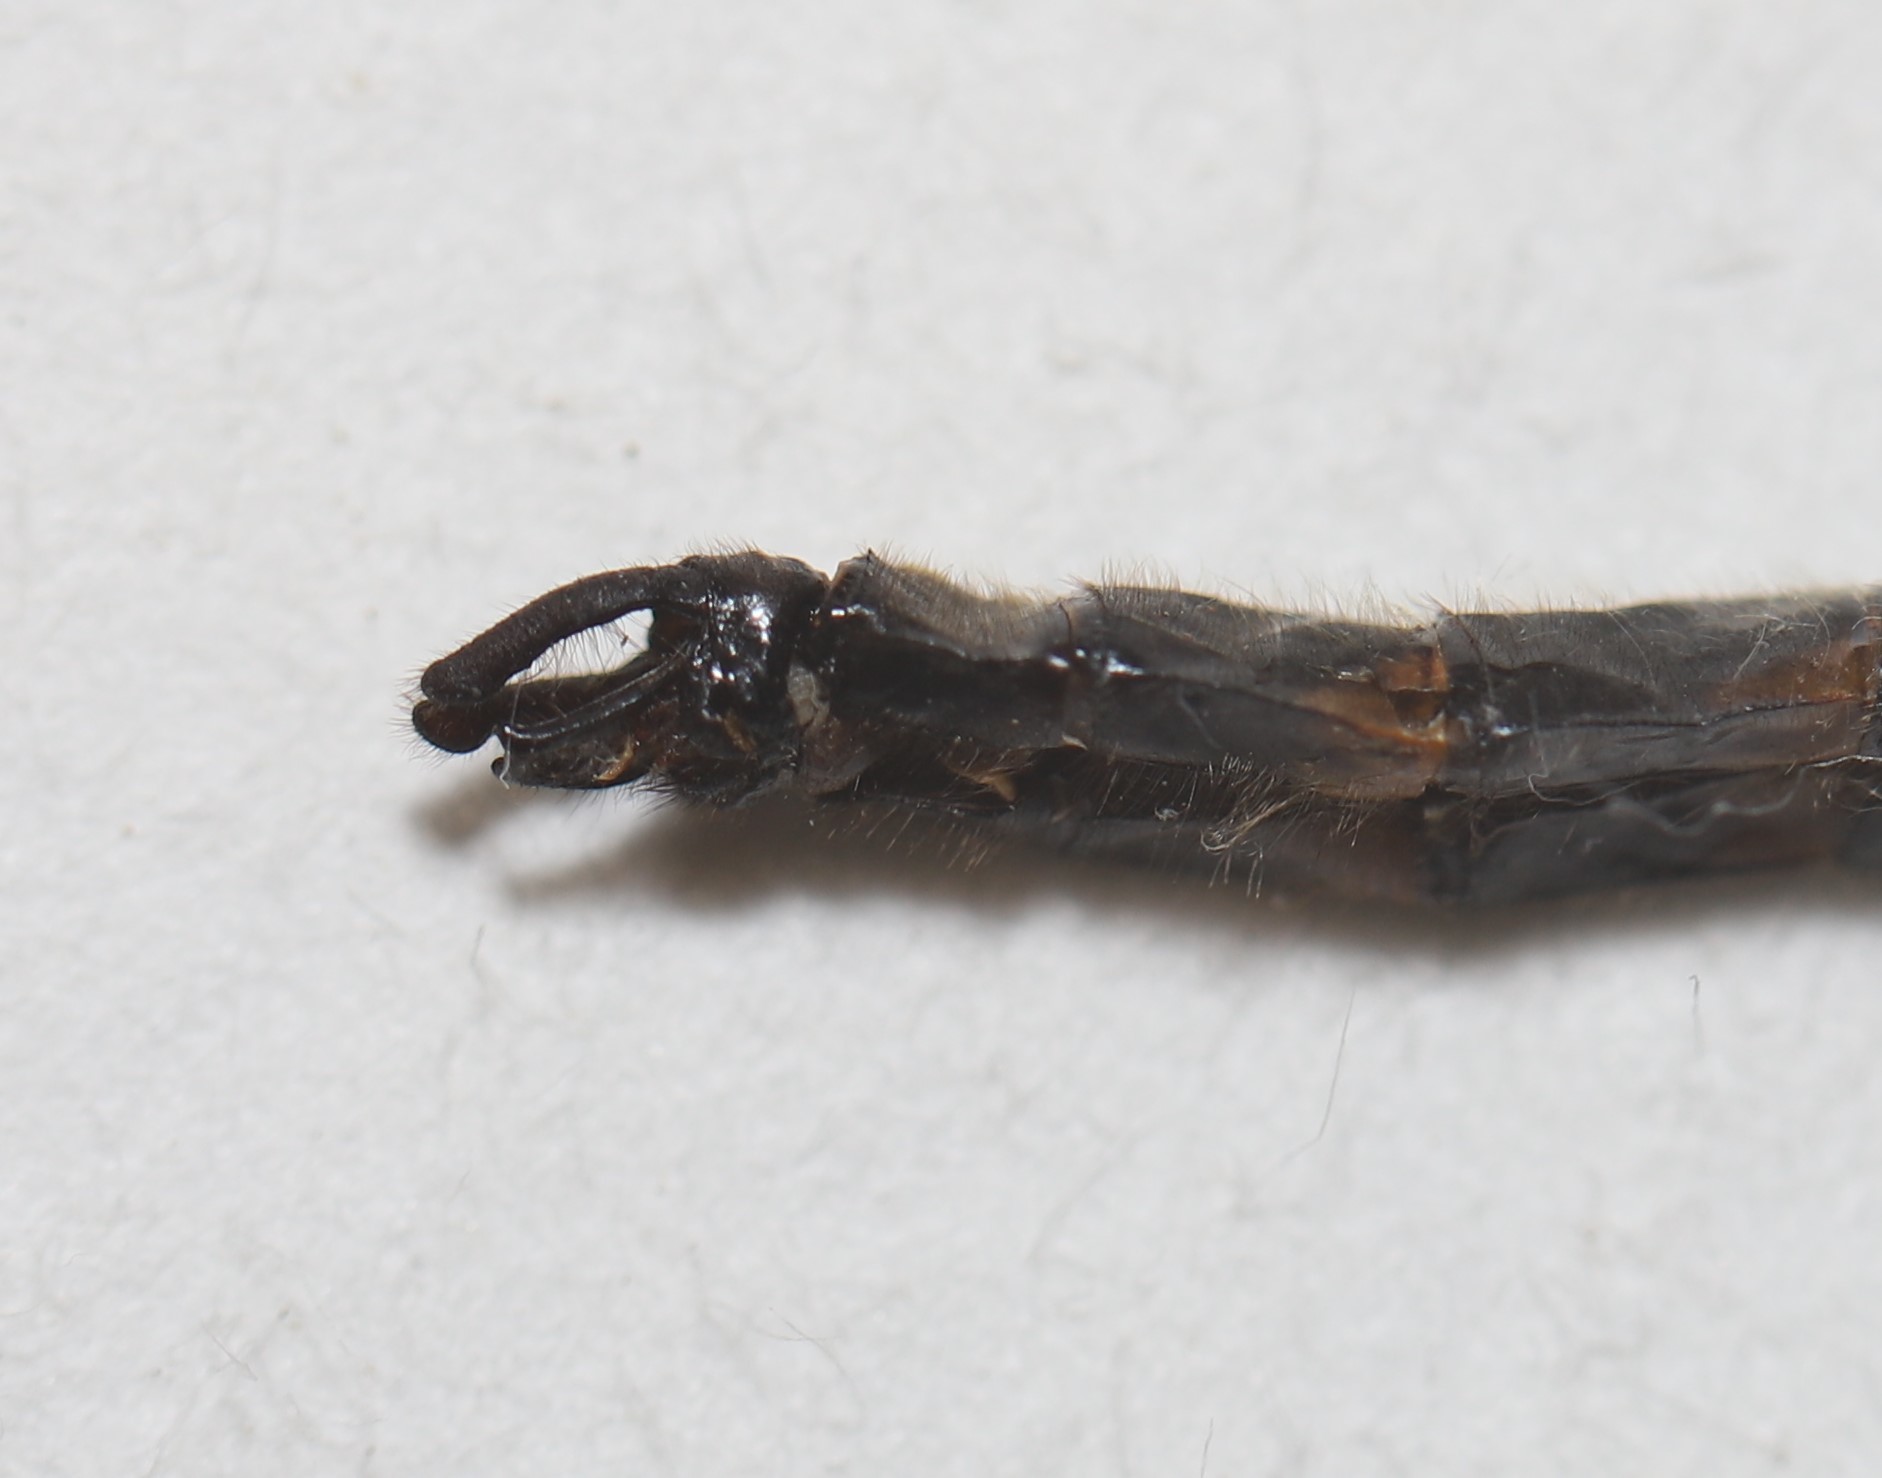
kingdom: Animalia
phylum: Arthropoda
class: Insecta
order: Odonata
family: Corduliidae
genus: Helocordulia
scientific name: Helocordulia uhleri
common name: Uhler's sundragon
